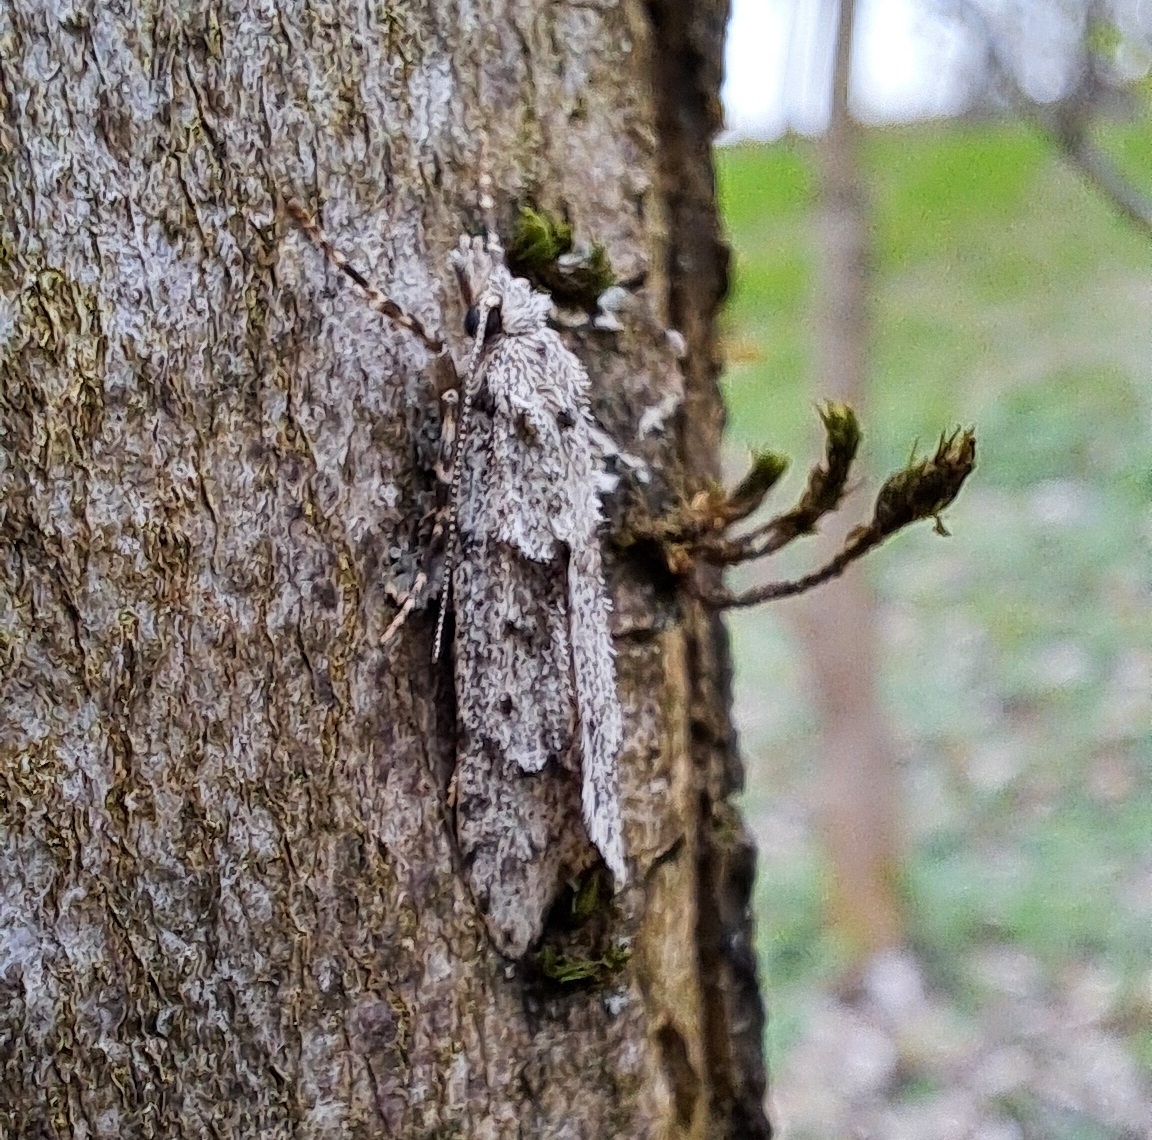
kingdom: Animalia
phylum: Arthropoda
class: Insecta
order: Lepidoptera
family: Lypusidae
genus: Diurnea
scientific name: Diurnea fagella
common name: March tubic
